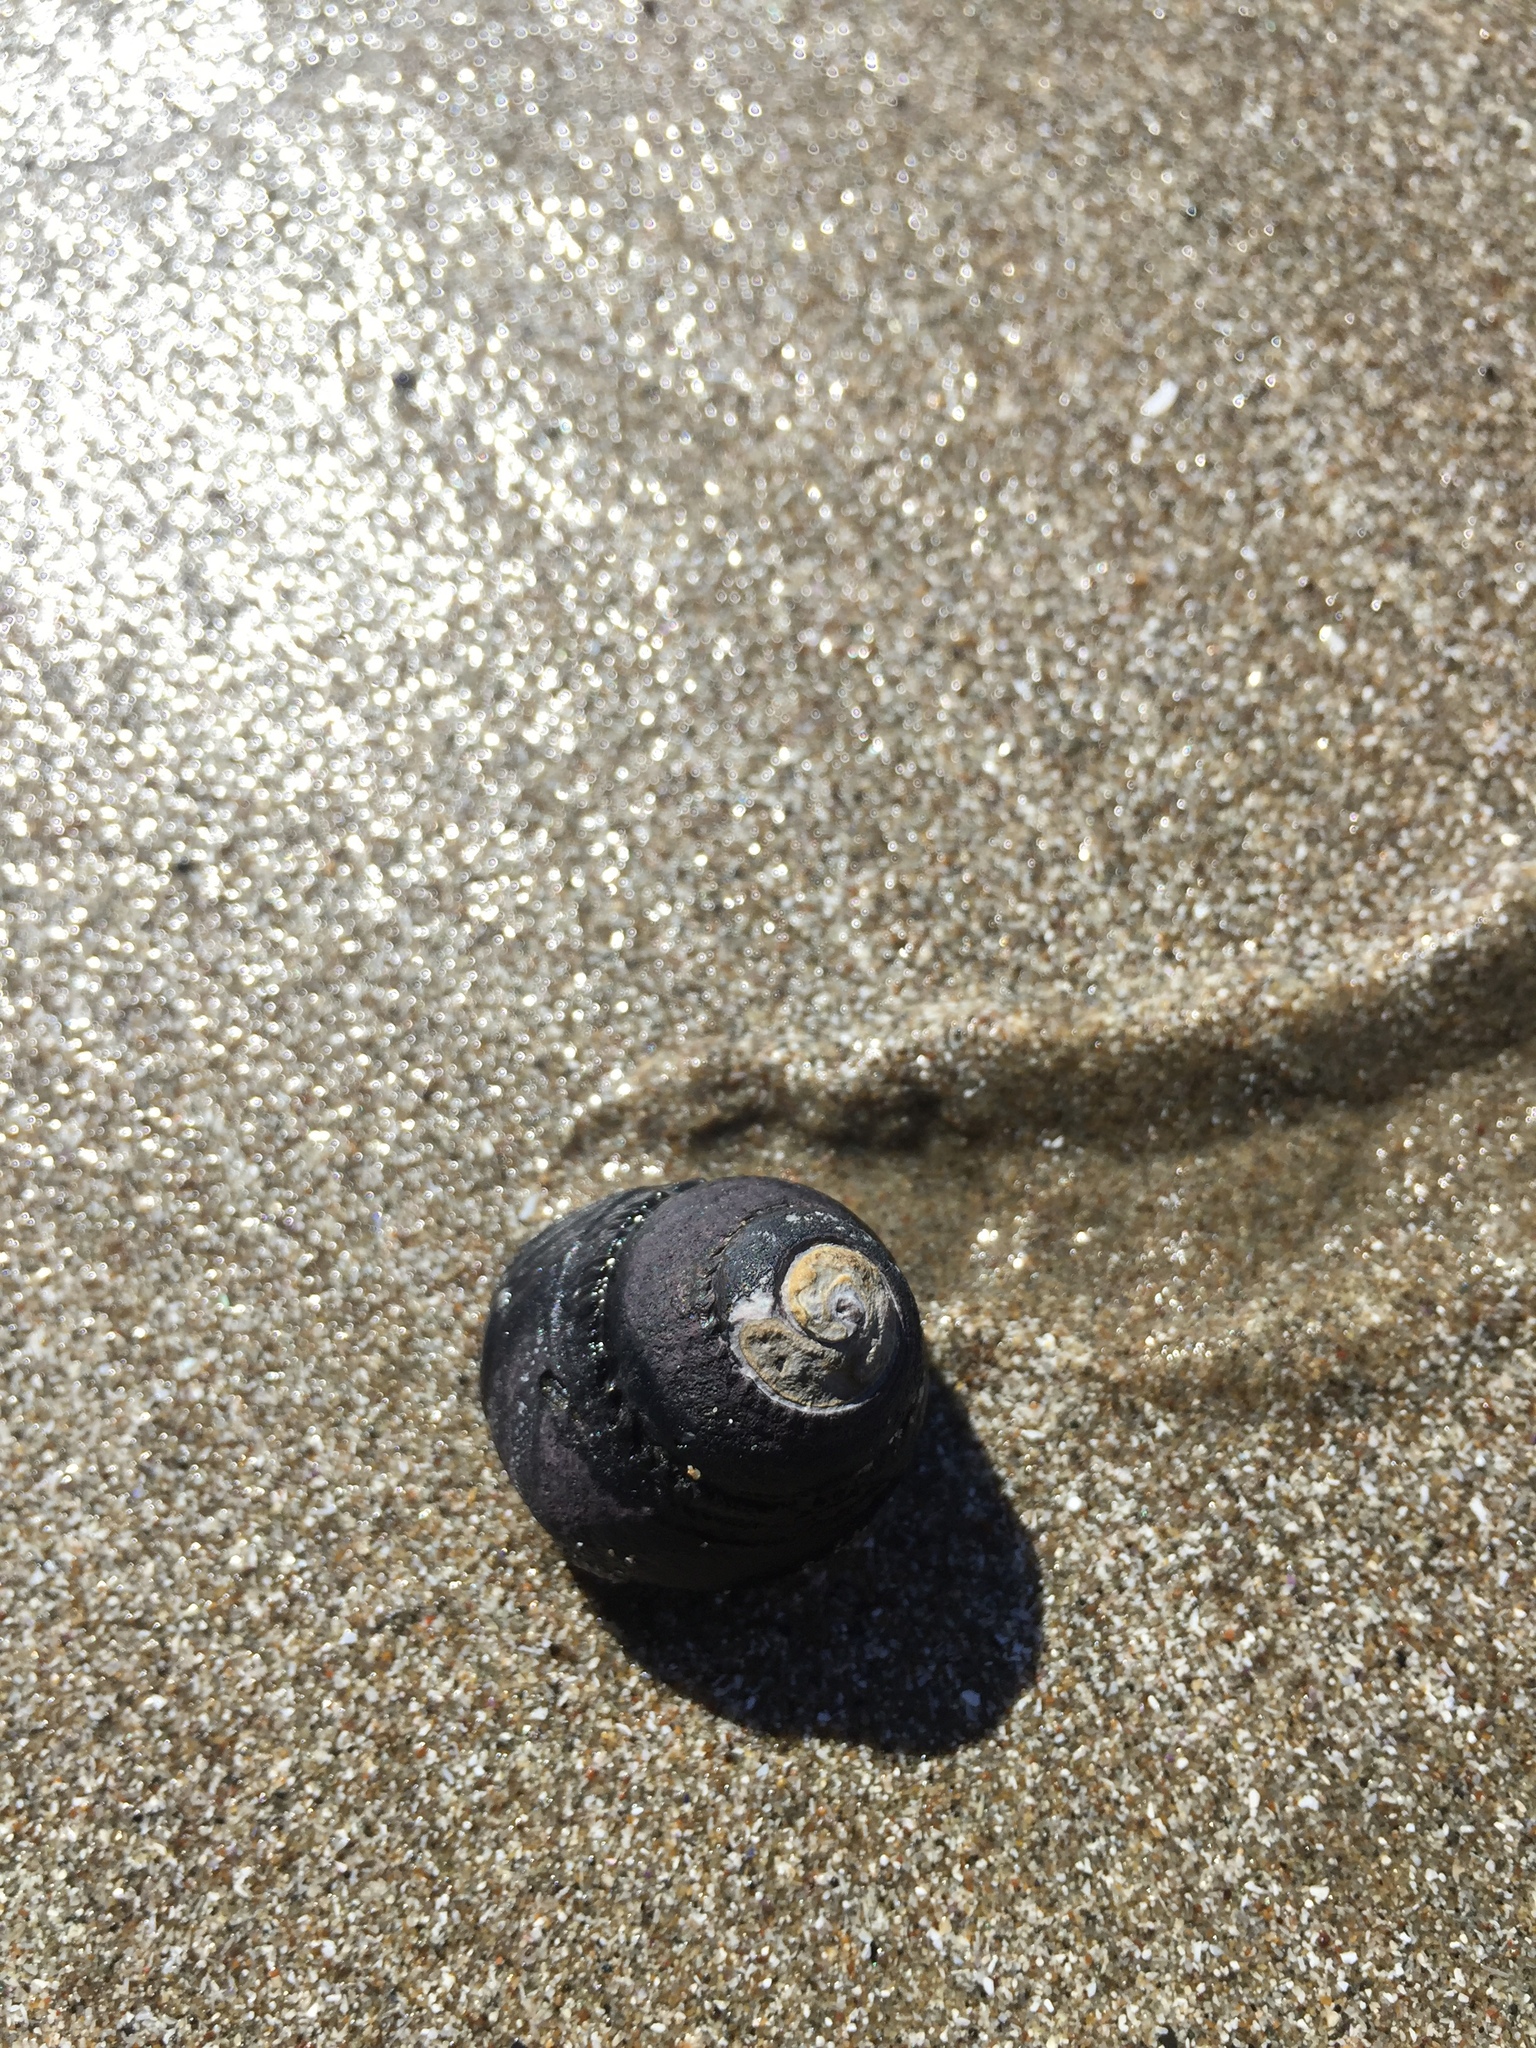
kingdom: Animalia
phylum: Mollusca
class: Gastropoda
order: Trochida
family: Tegulidae
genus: Tegula
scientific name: Tegula funebralis
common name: Black tegula
